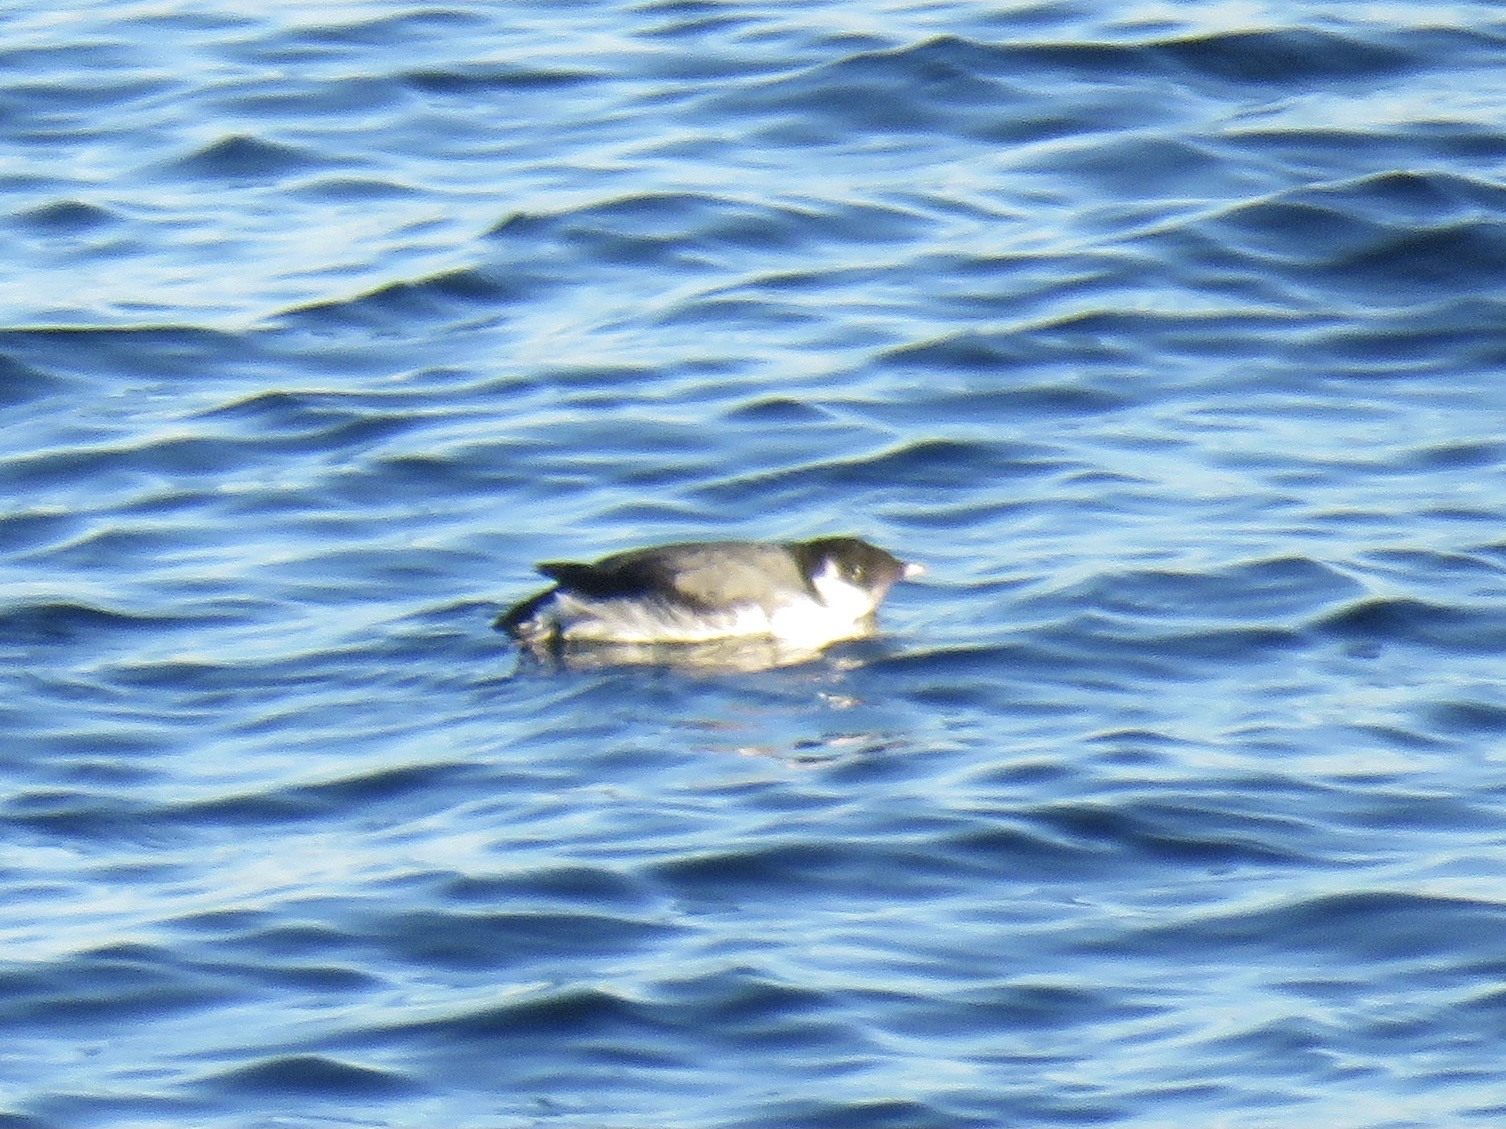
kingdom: Animalia
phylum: Chordata
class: Aves
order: Charadriiformes
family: Alcidae
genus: Synthliboramphus
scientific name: Synthliboramphus antiquus
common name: Ancient murrelet
